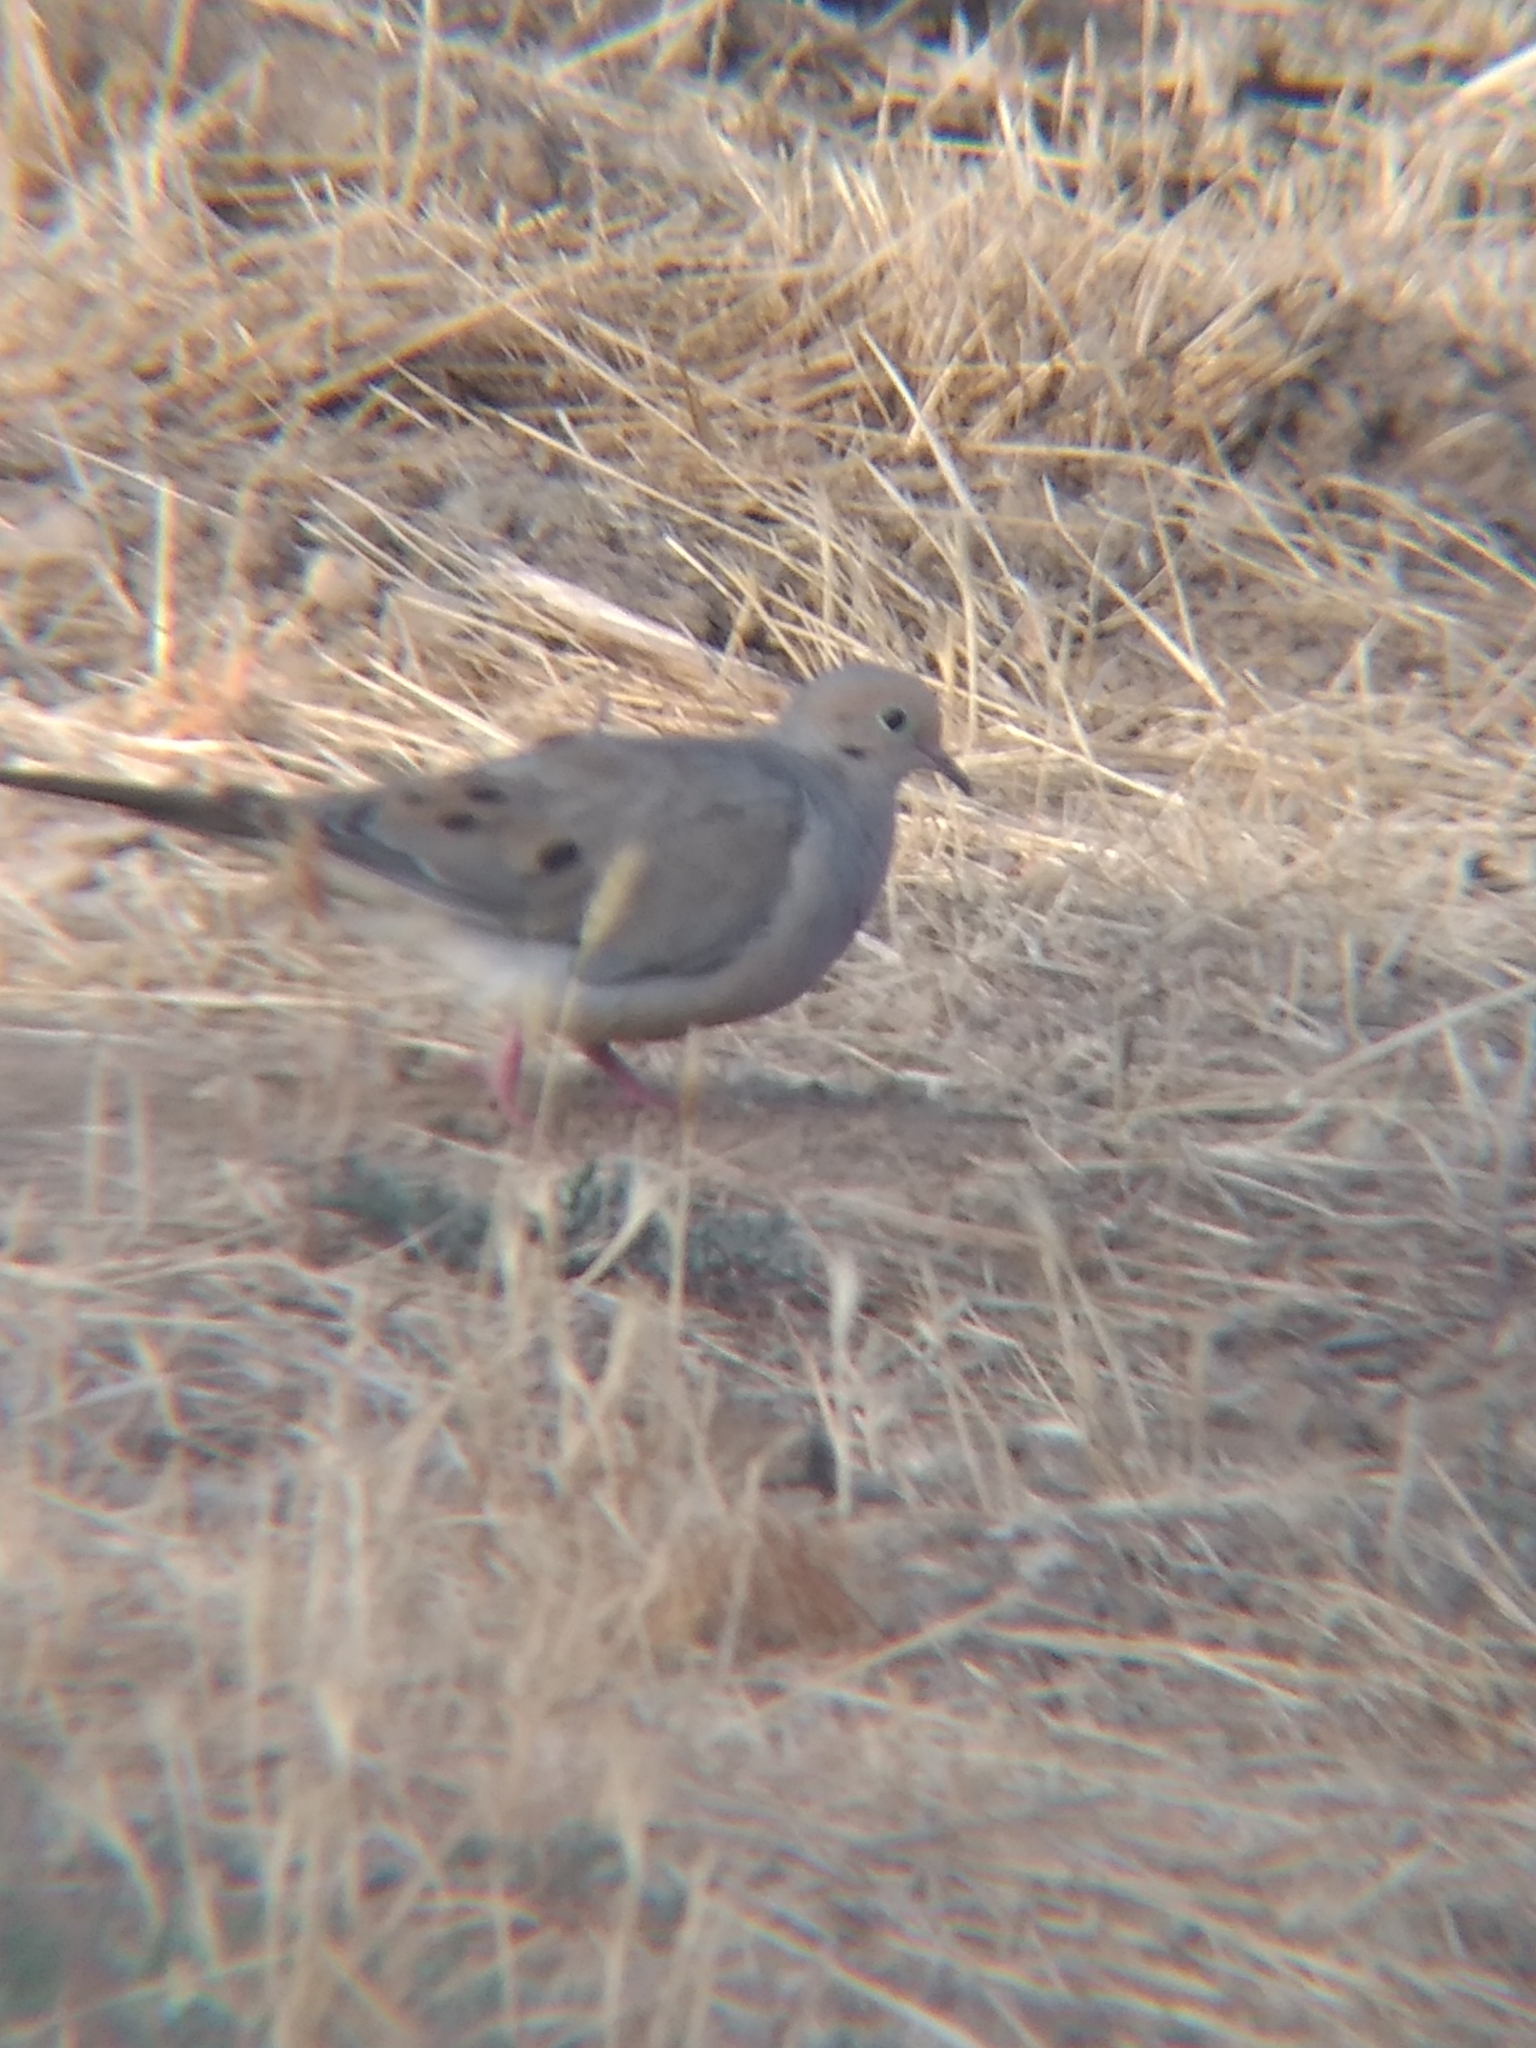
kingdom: Animalia
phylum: Chordata
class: Aves
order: Columbiformes
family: Columbidae
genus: Zenaida
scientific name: Zenaida macroura
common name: Mourning dove
